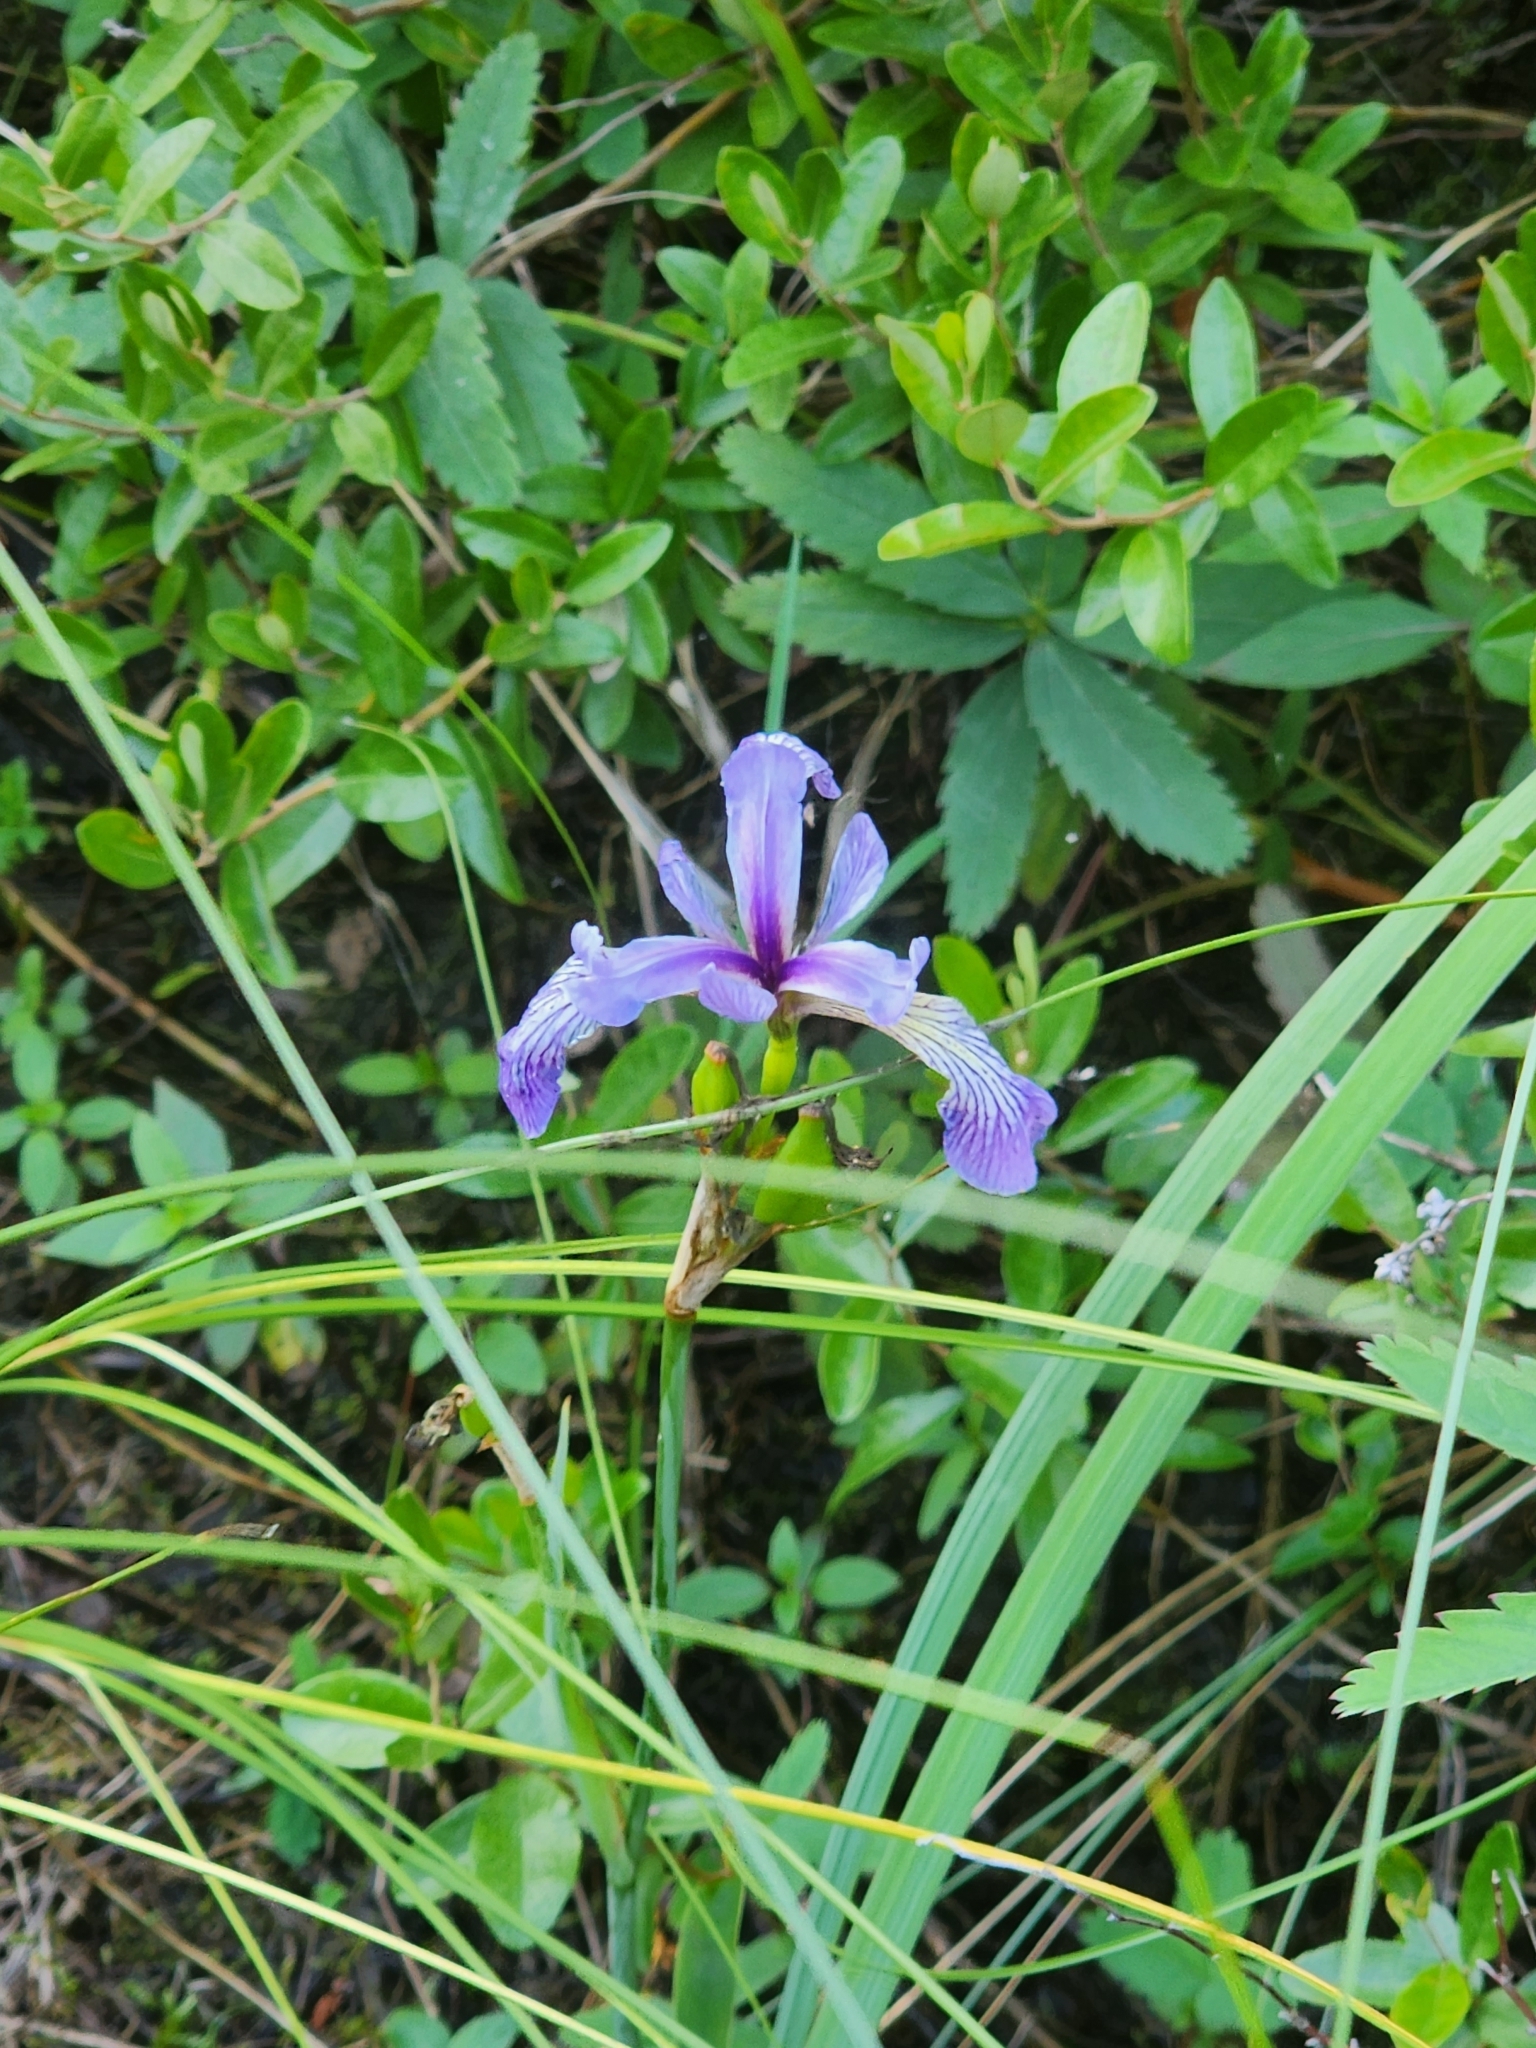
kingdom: Plantae
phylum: Tracheophyta
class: Liliopsida
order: Asparagales
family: Iridaceae
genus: Iris
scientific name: Iris versicolor
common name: Purple iris
